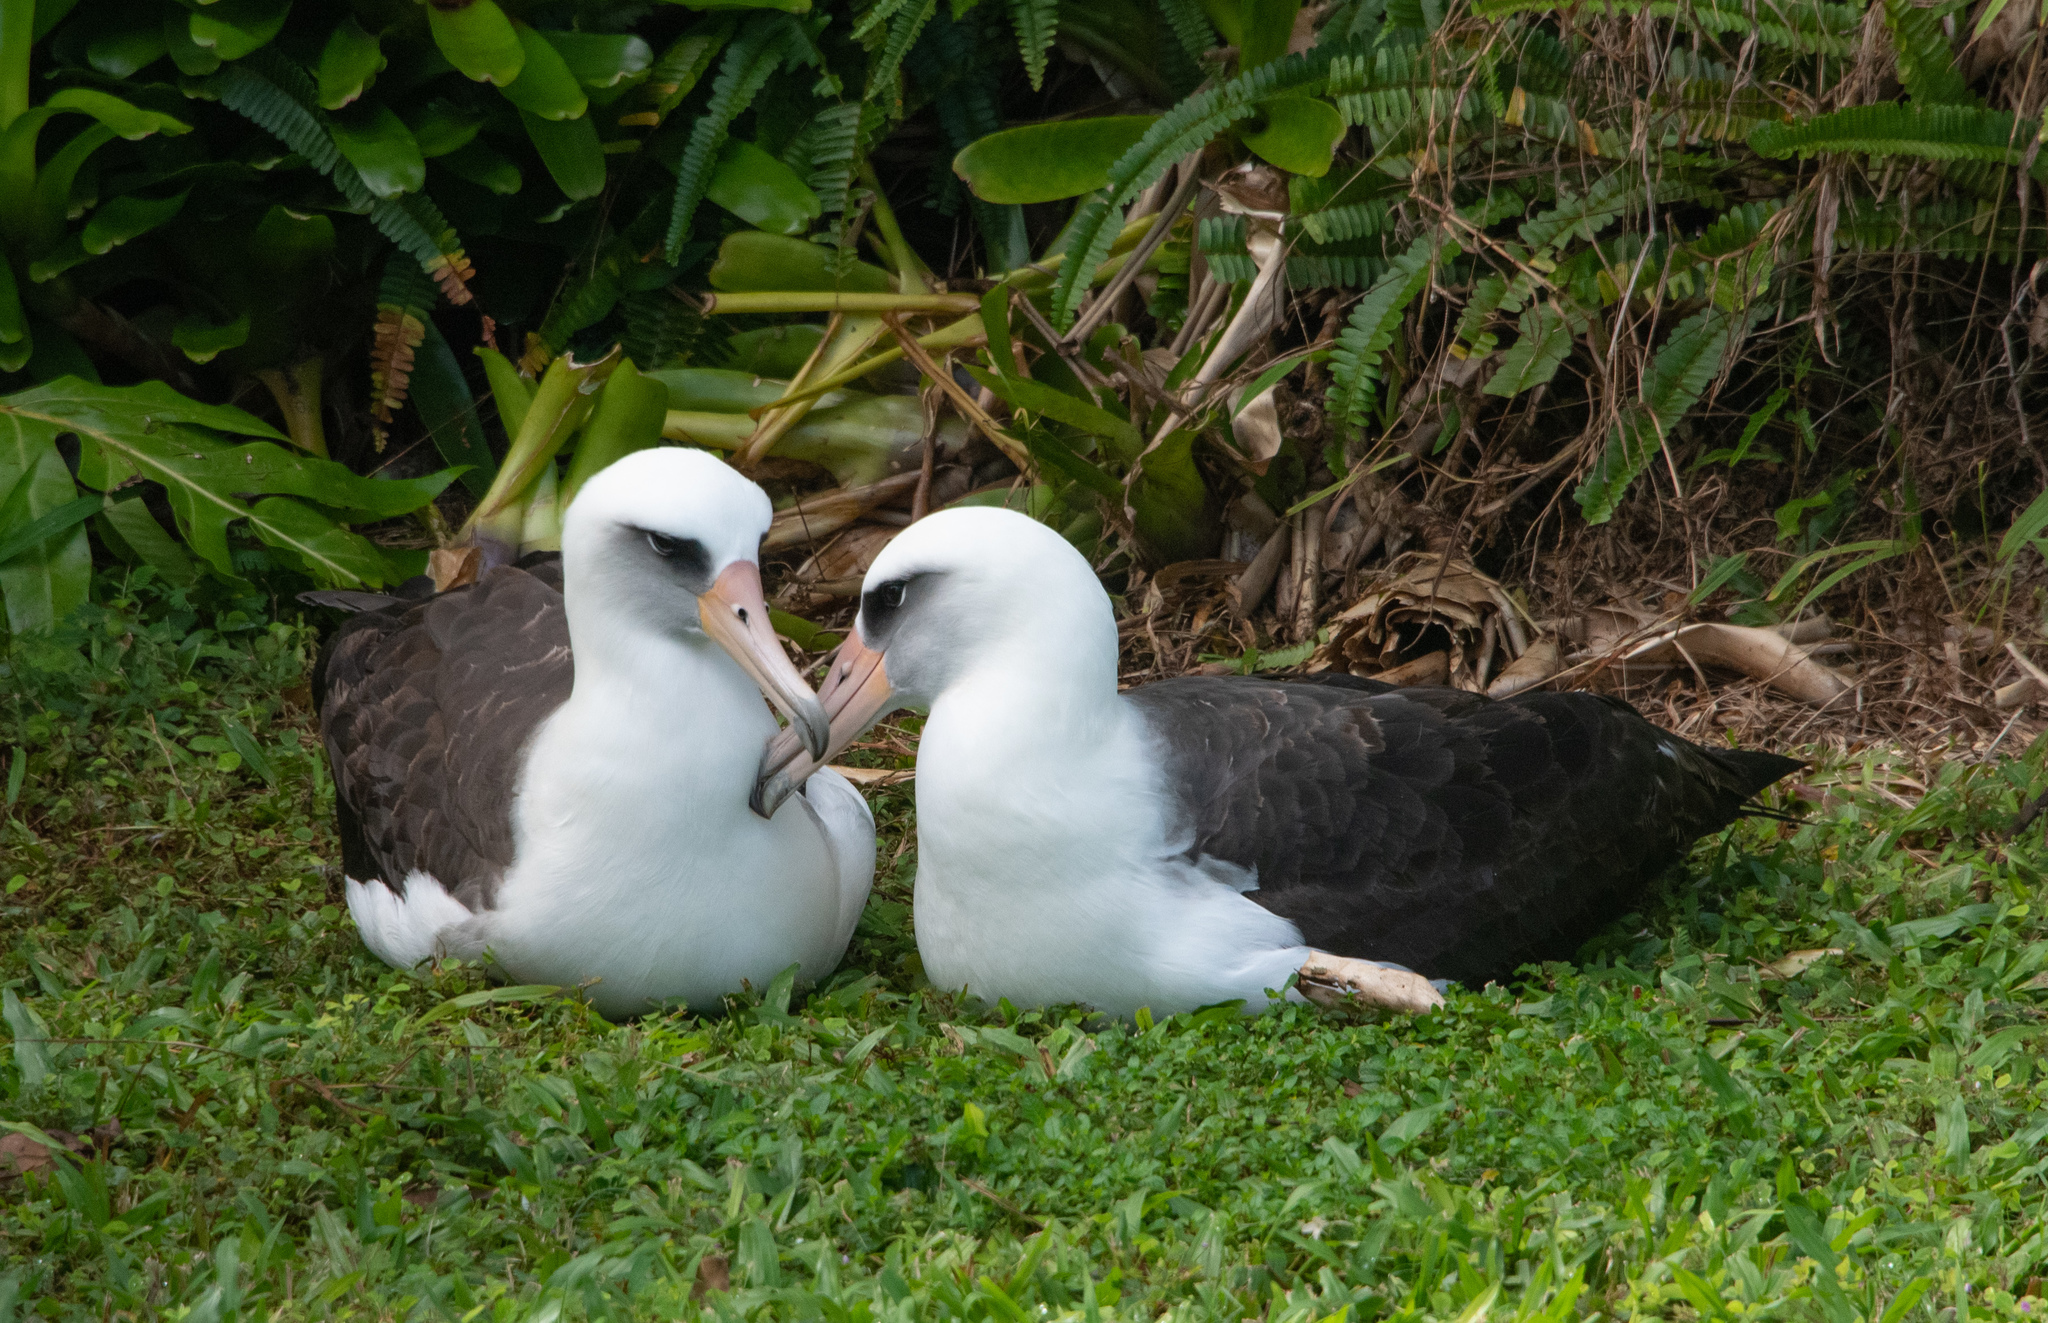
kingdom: Animalia
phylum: Chordata
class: Aves
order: Procellariiformes
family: Diomedeidae
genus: Phoebastria
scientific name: Phoebastria immutabilis
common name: Laysan albatross
